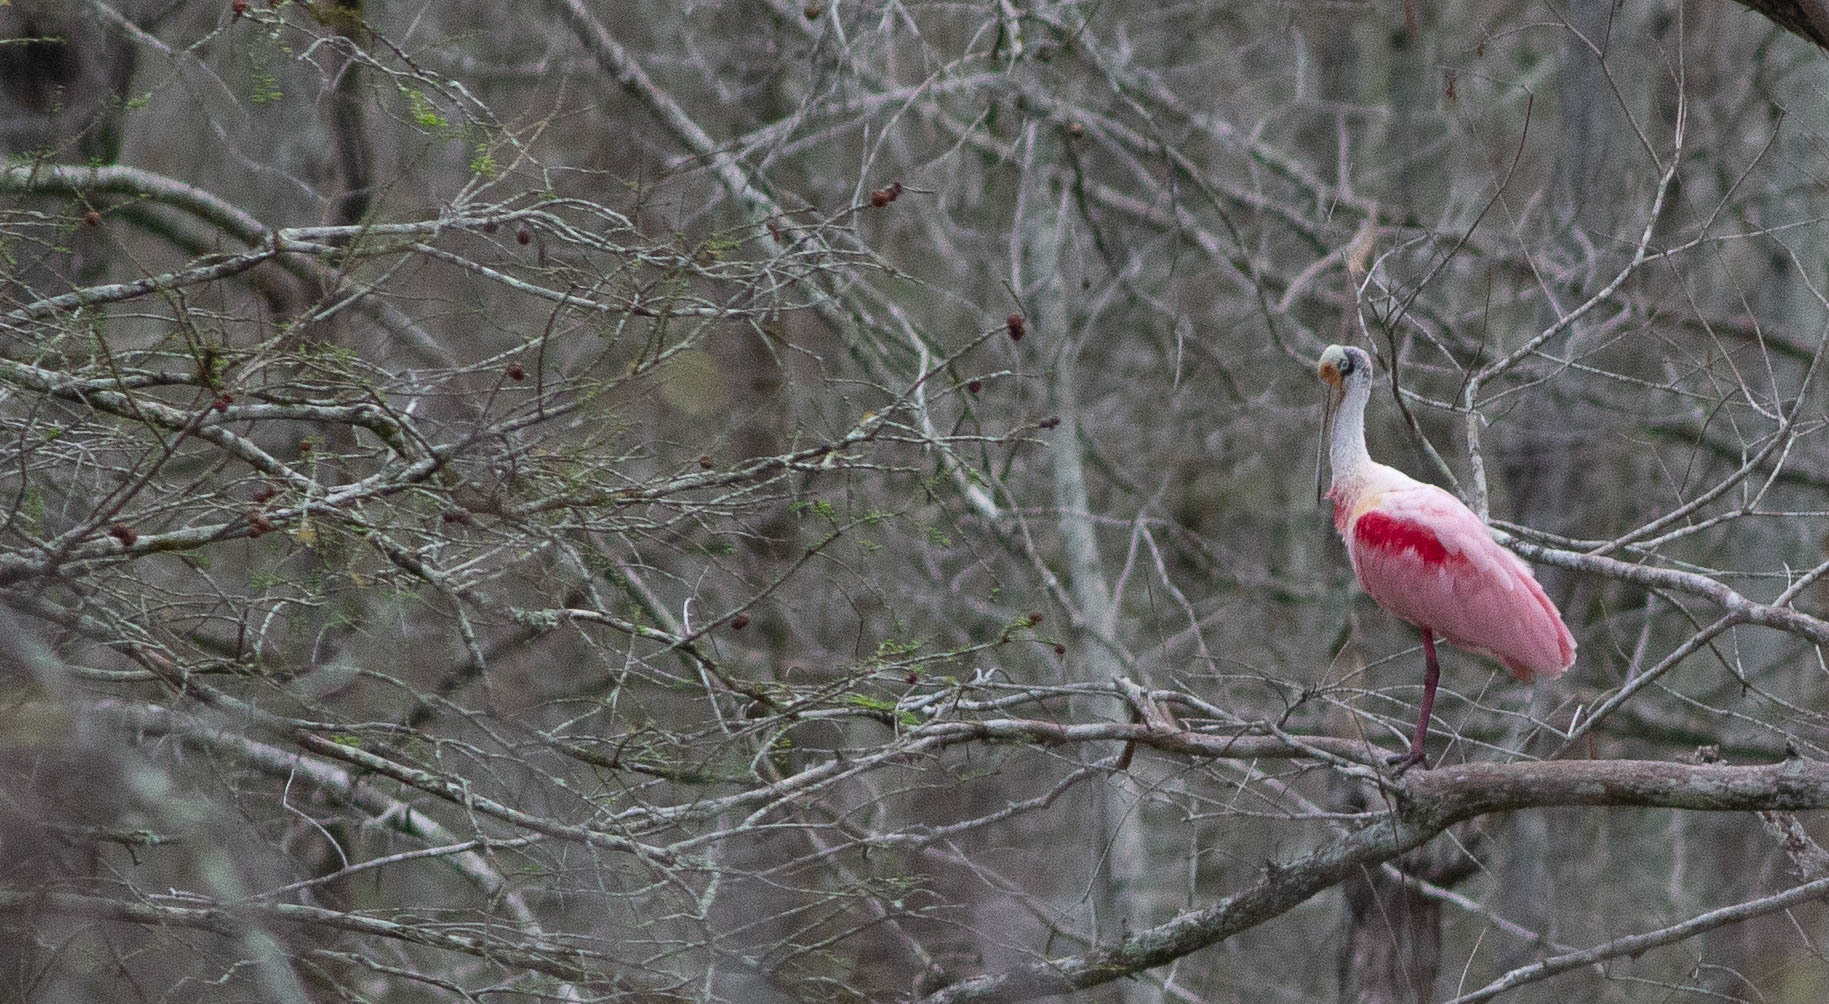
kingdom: Animalia
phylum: Chordata
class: Aves
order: Pelecaniformes
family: Threskiornithidae
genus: Platalea
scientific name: Platalea ajaja
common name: Roseate spoonbill
